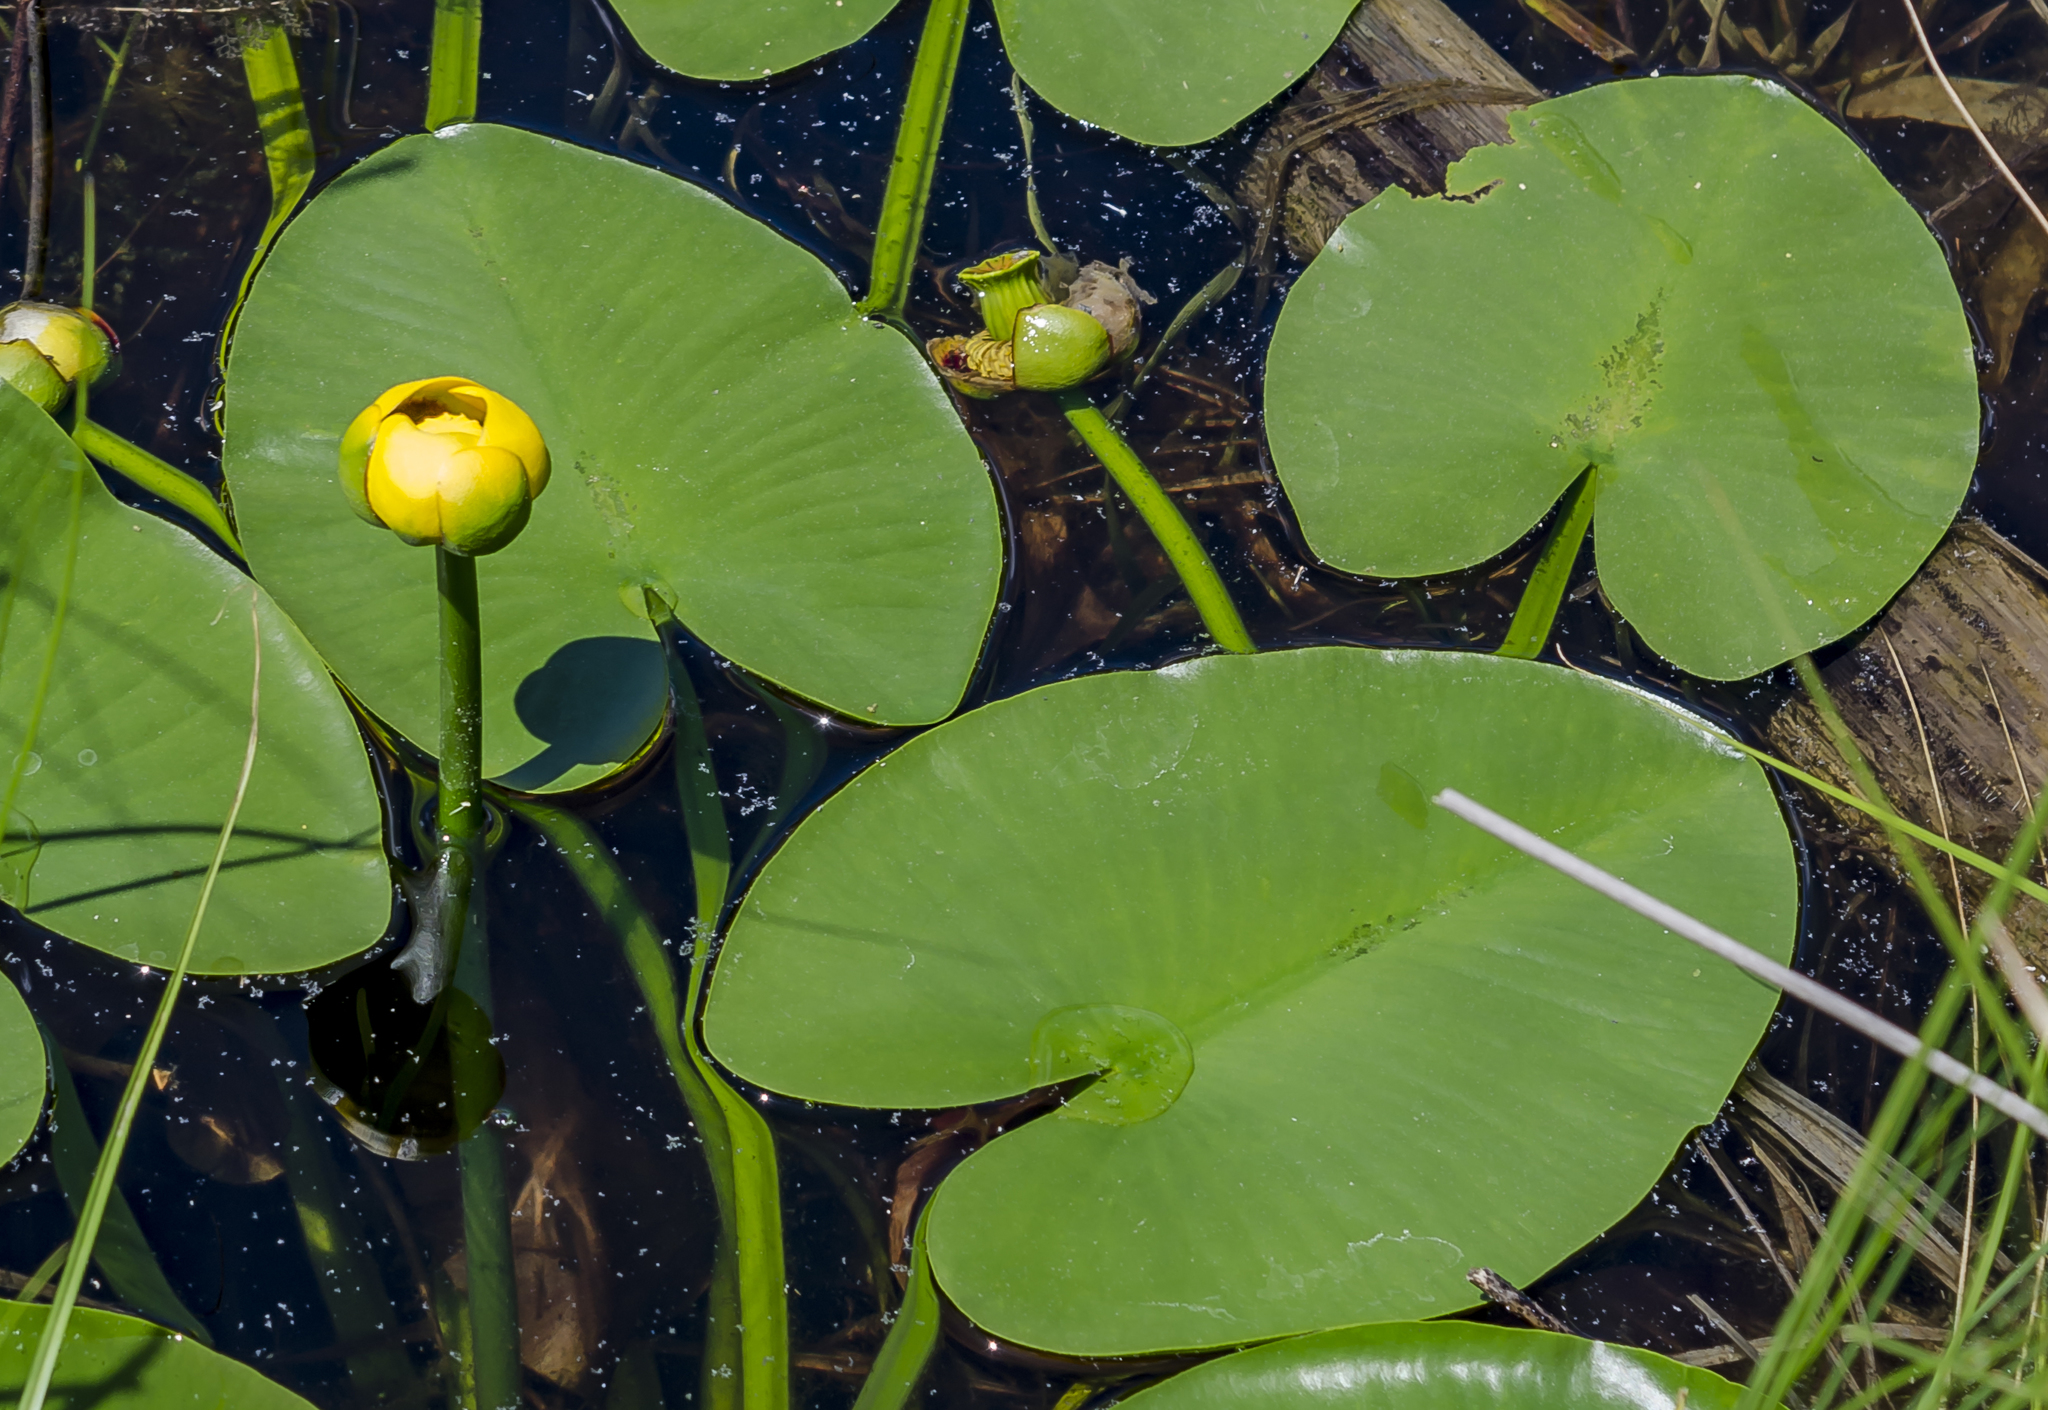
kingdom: Plantae
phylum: Tracheophyta
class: Magnoliopsida
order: Nymphaeales
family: Nymphaeaceae
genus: Nuphar
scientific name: Nuphar variegata
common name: Beaver-root
